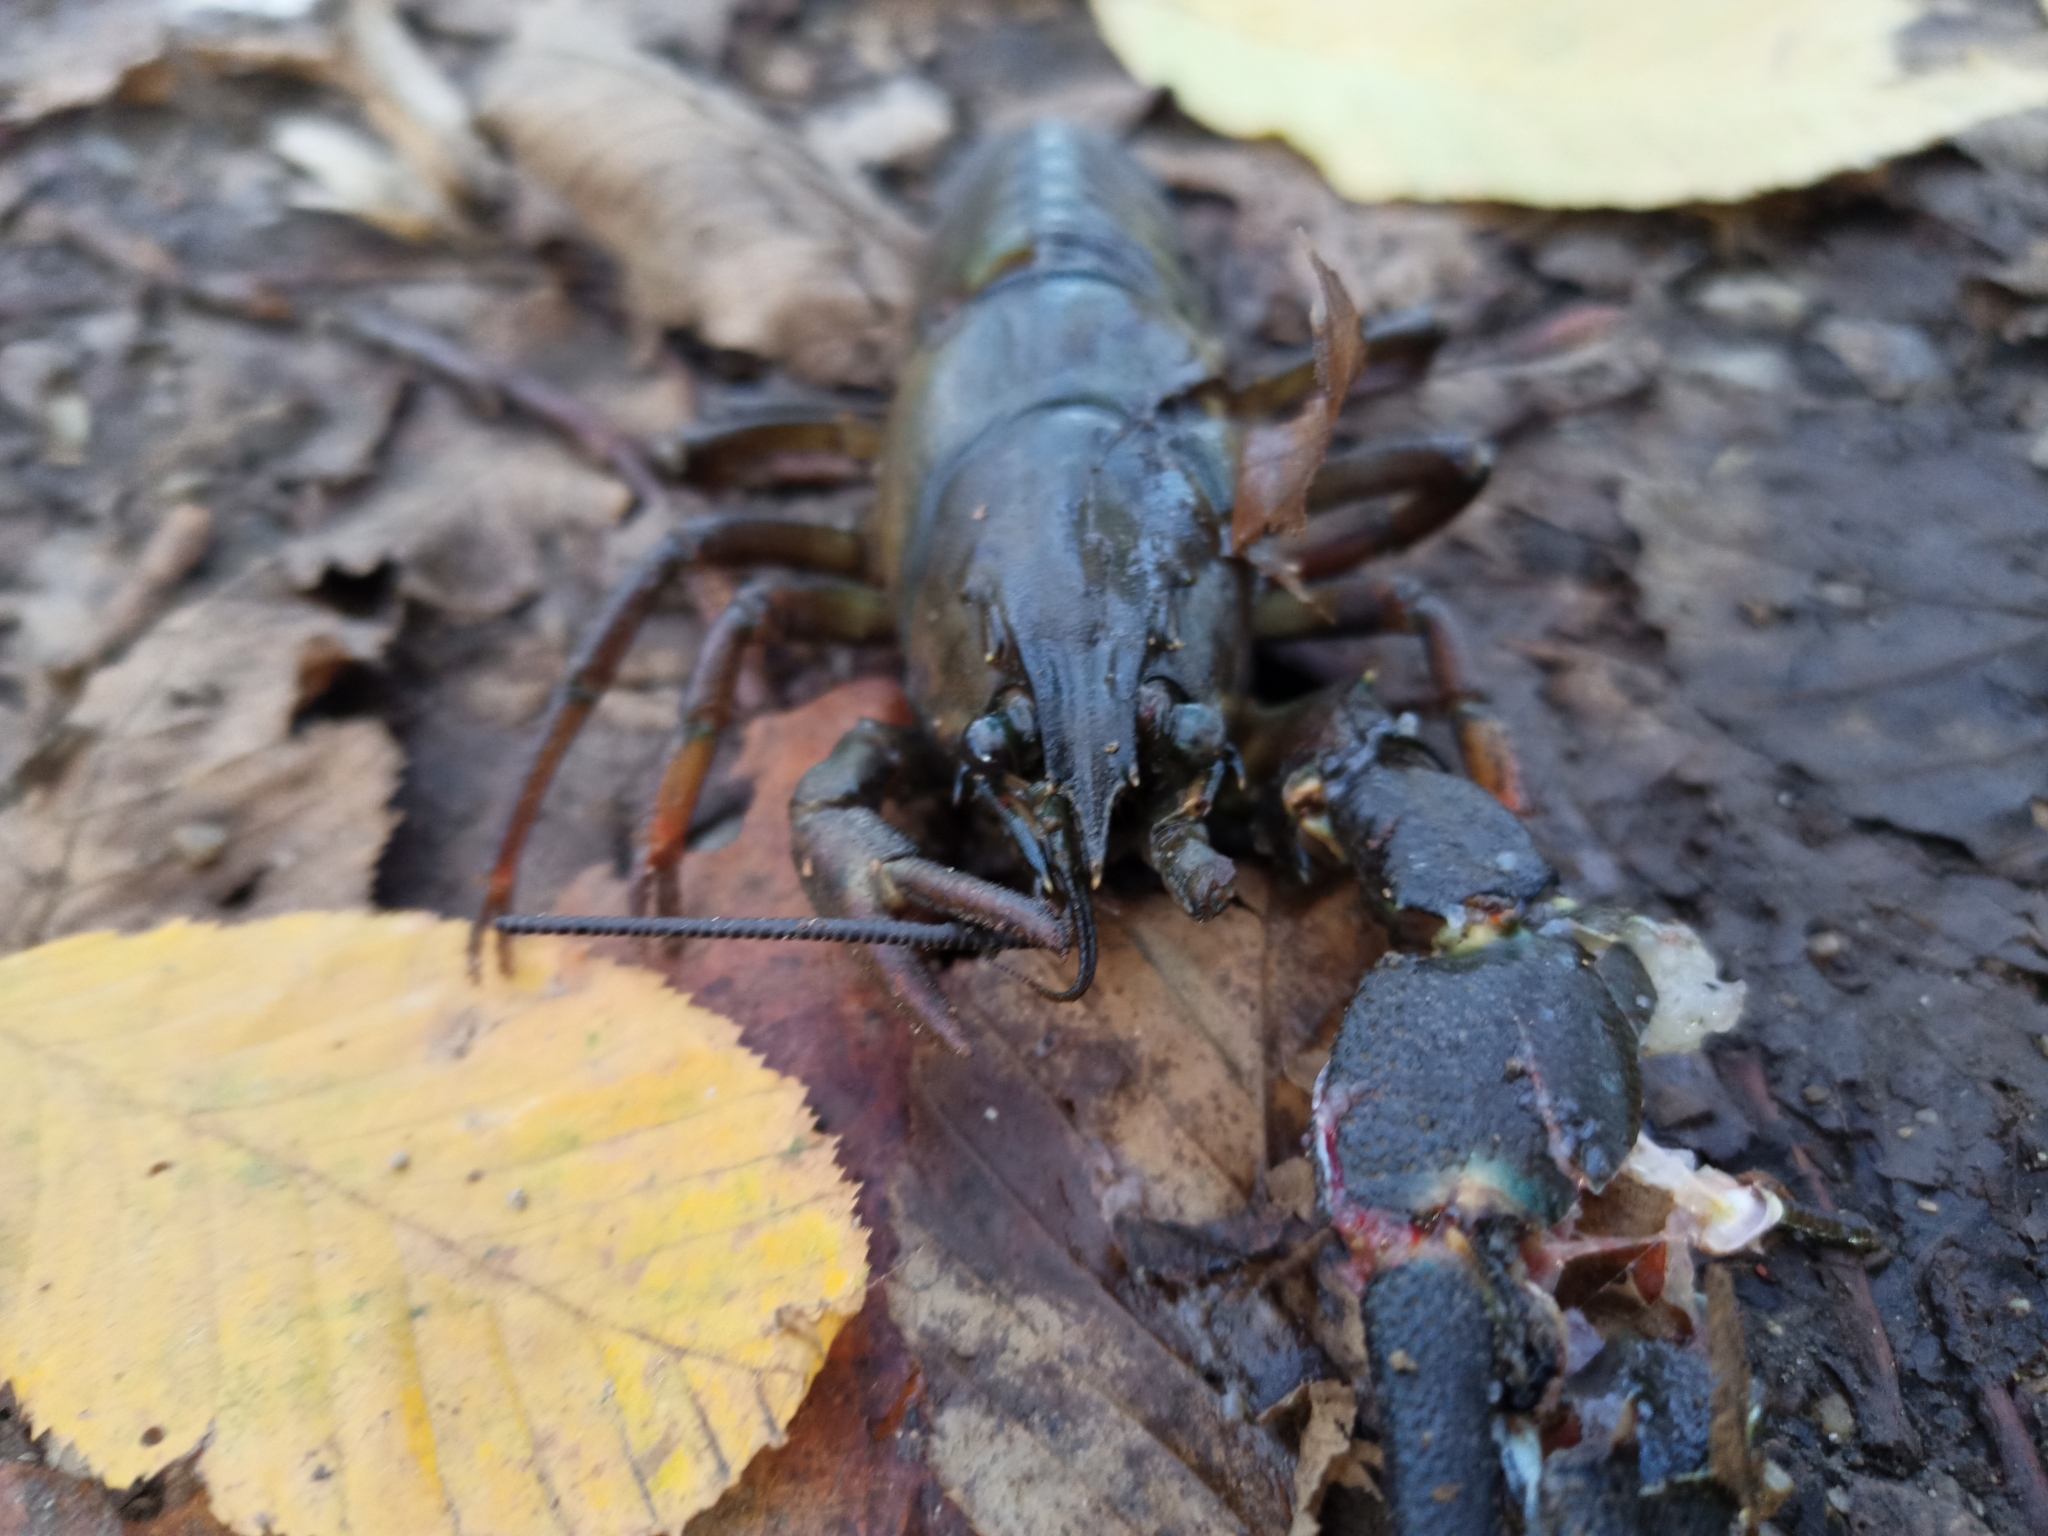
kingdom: Animalia
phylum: Arthropoda
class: Malacostraca
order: Decapoda
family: Astacidae
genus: Pacifastacus
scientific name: Pacifastacus leniusculus
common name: Signal crayfish
